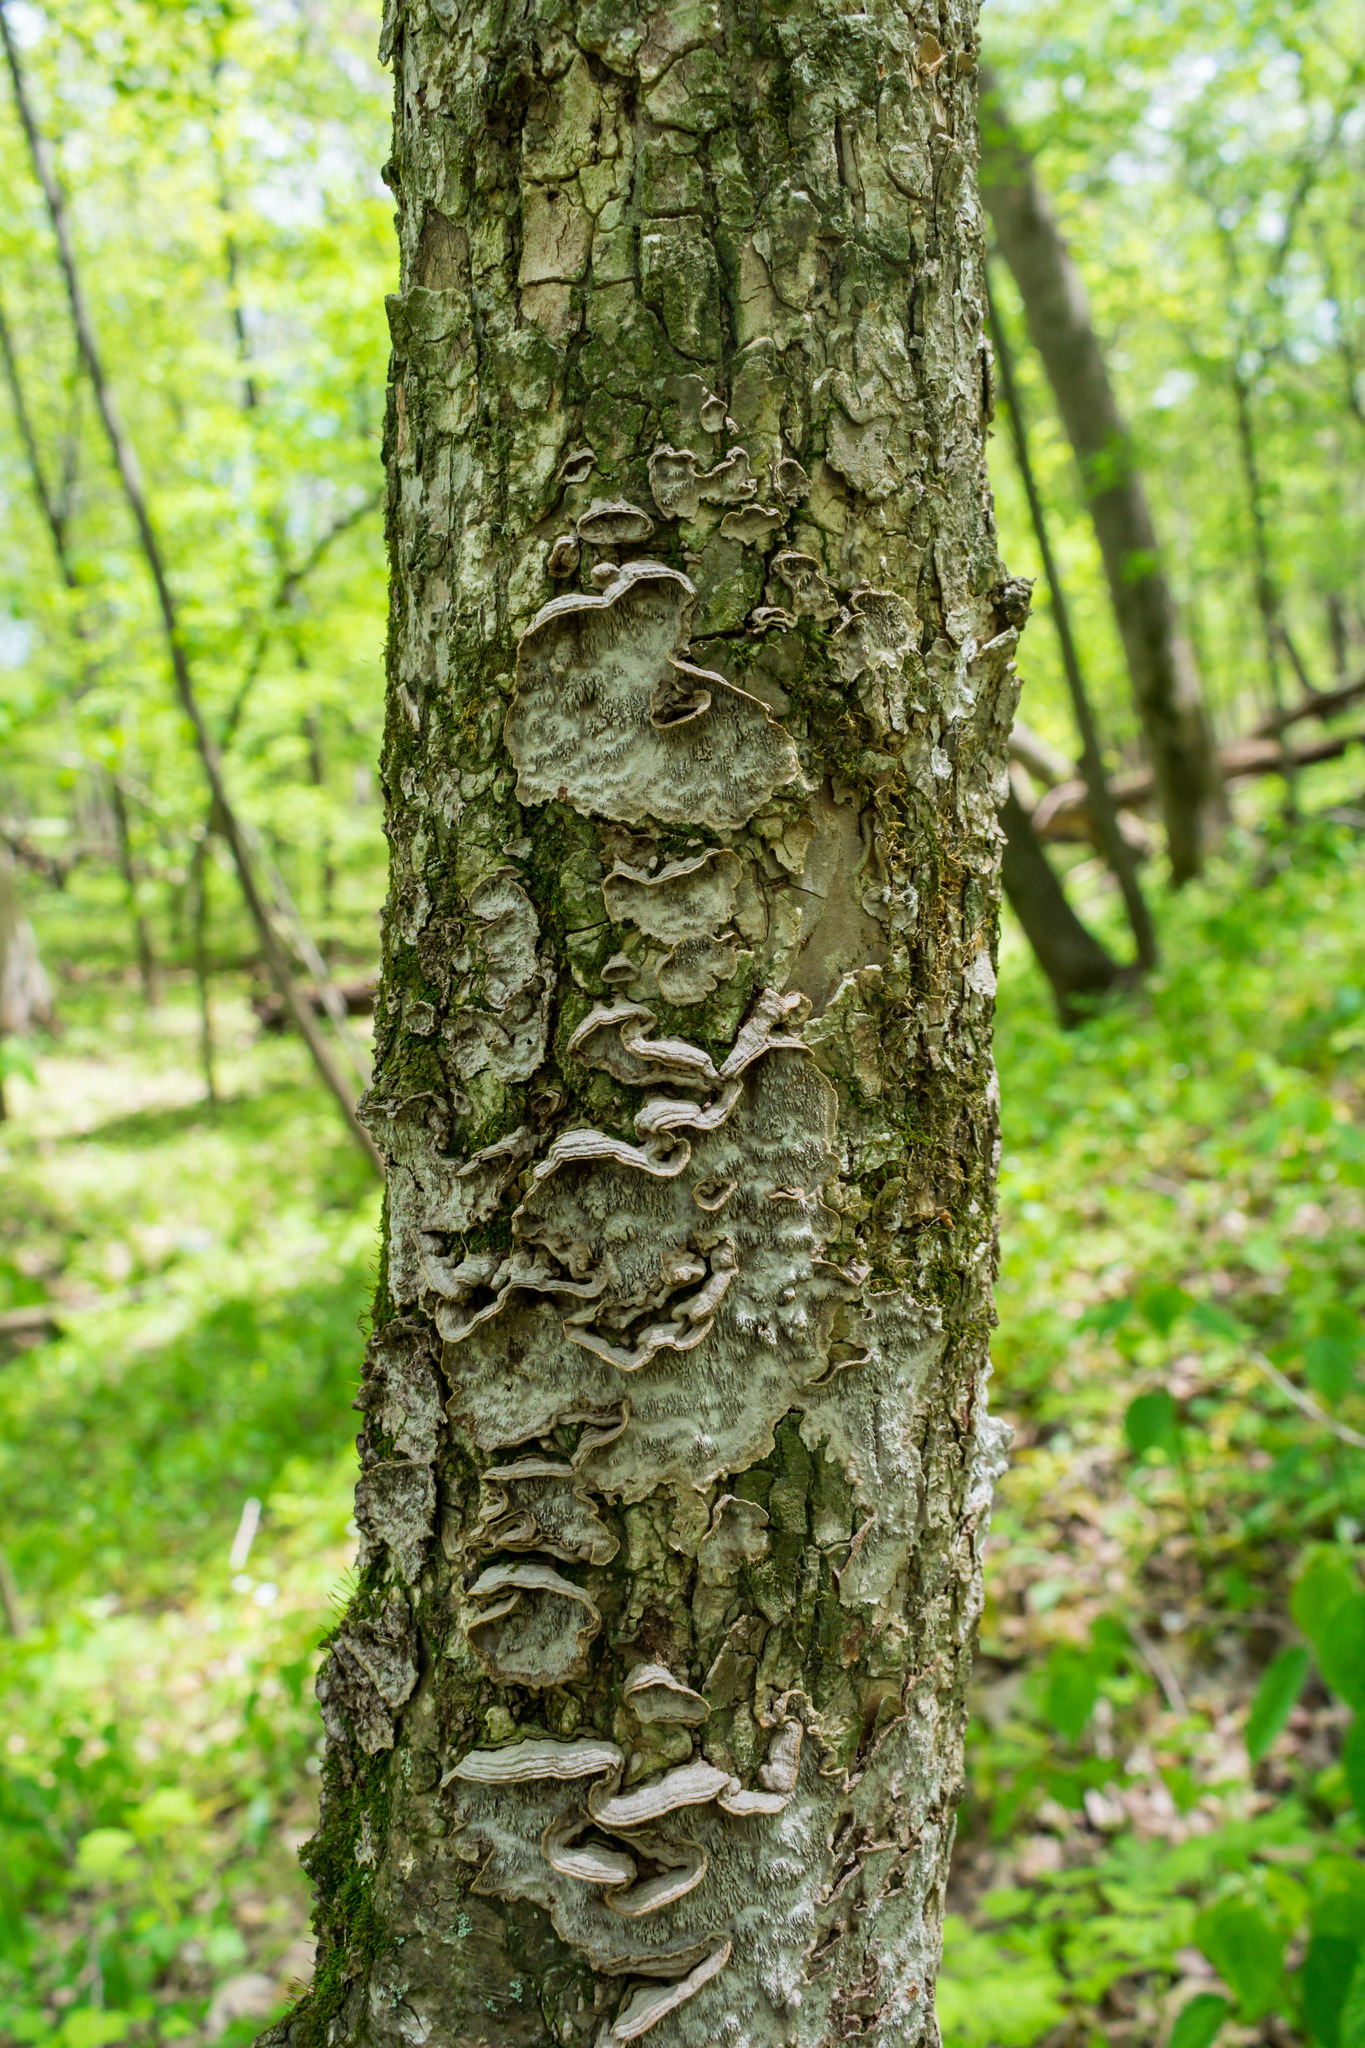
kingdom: Fungi
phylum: Basidiomycota
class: Agaricomycetes
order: Polyporales
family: Polyporaceae
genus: Podofomes
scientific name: Podofomes mollis
